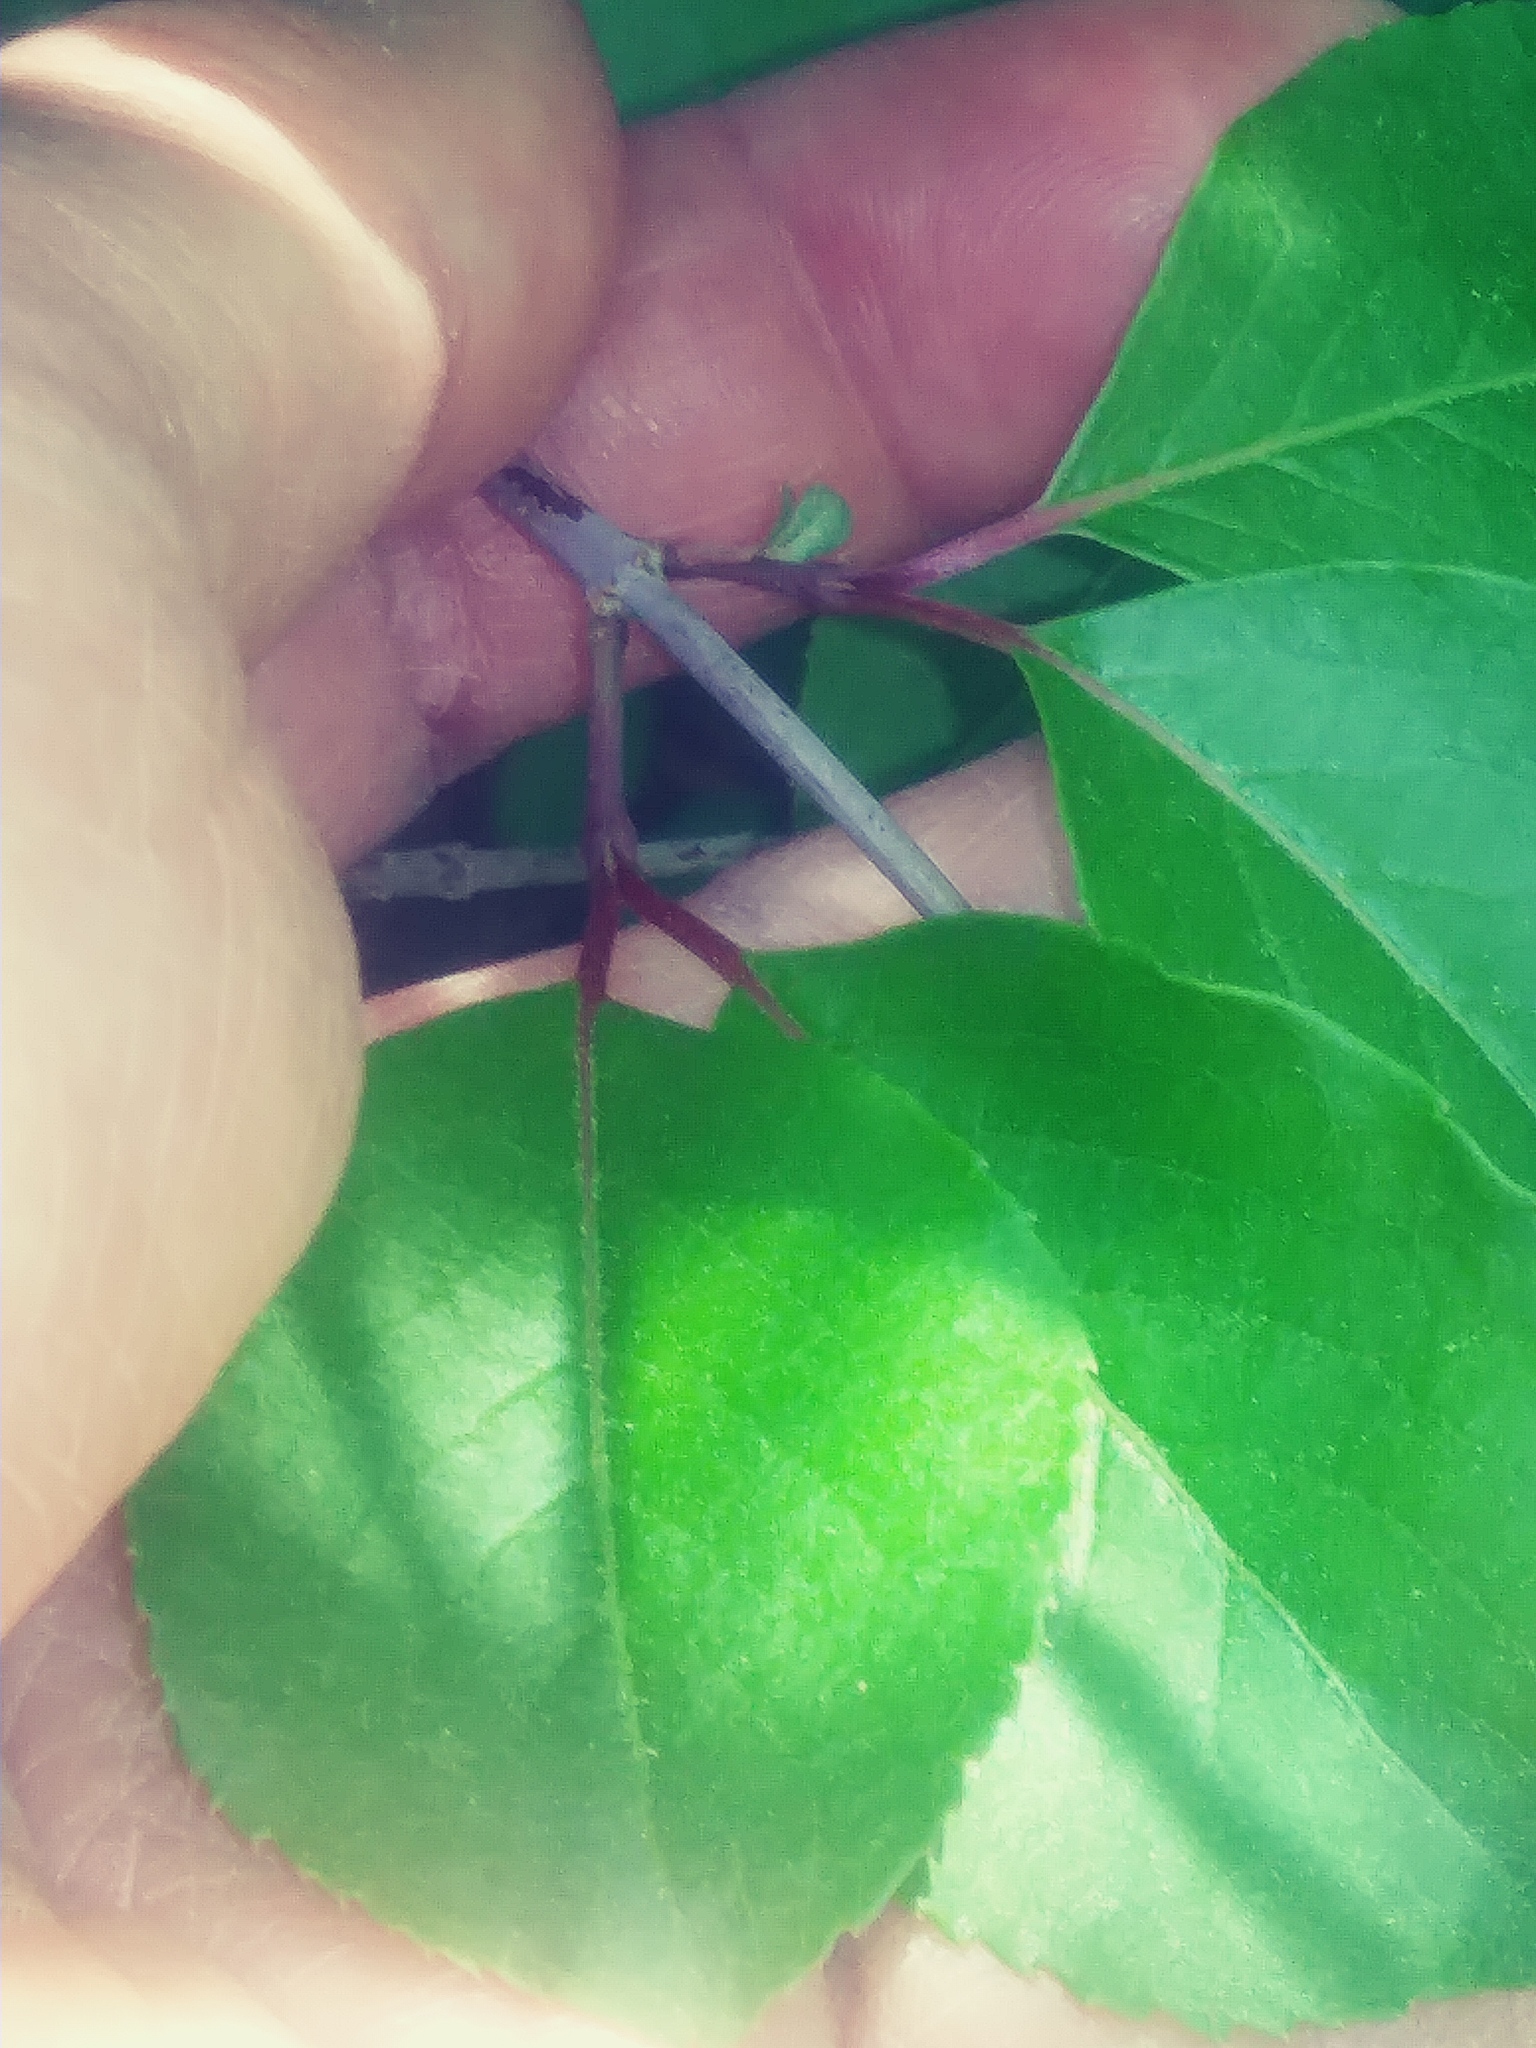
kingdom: Plantae
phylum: Tracheophyta
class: Magnoliopsida
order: Dipsacales
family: Viburnaceae
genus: Viburnum
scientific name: Viburnum prunifolium
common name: Black haw
